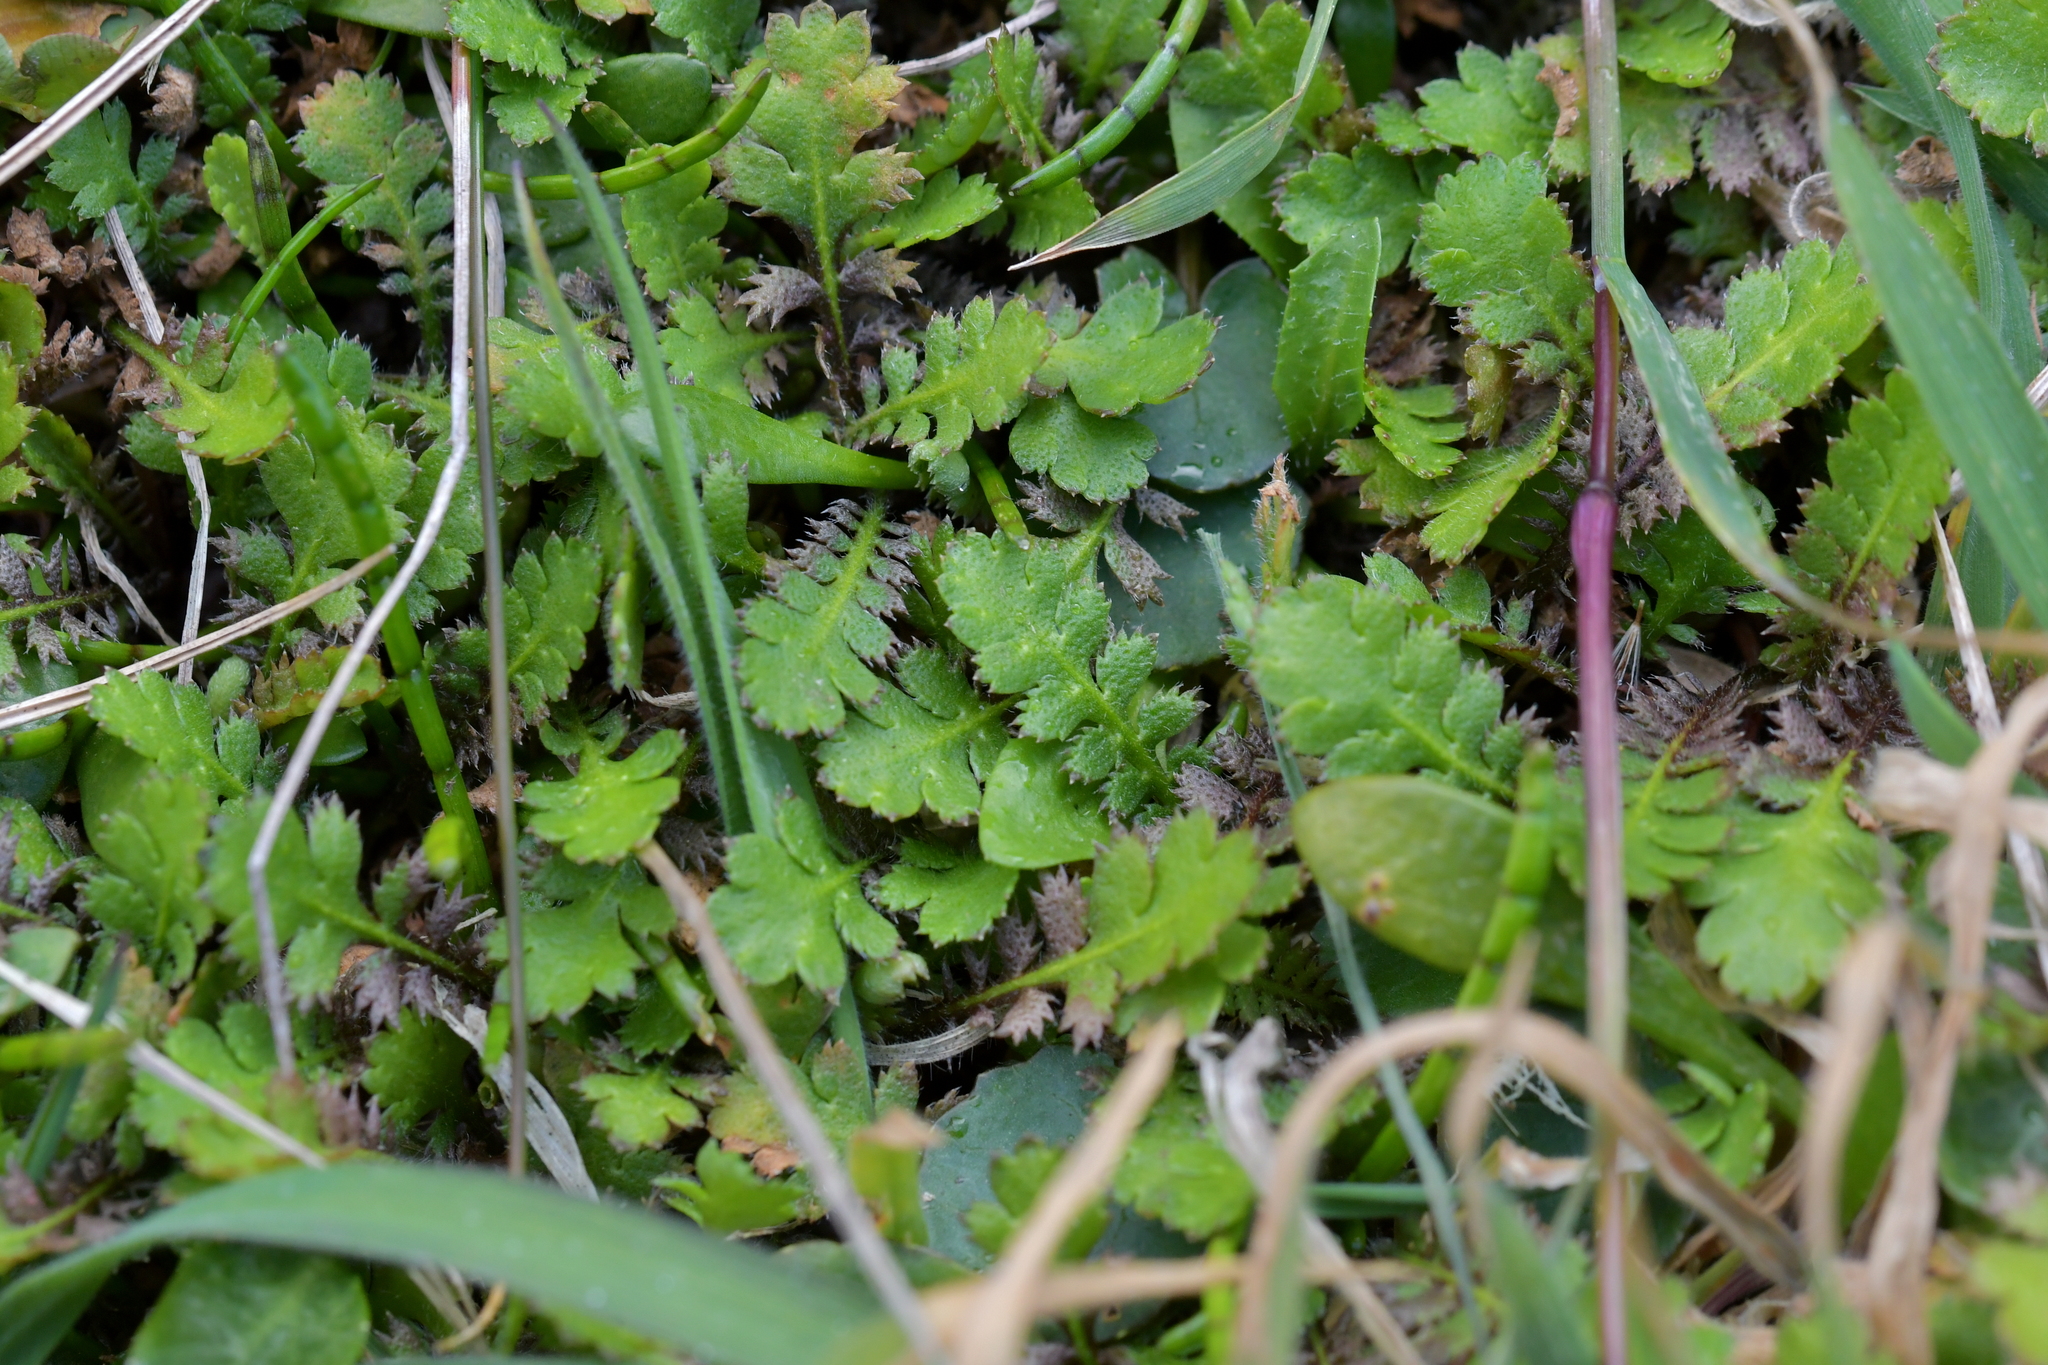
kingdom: Plantae
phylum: Tracheophyta
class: Magnoliopsida
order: Asterales
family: Asteraceae
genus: Leptinella
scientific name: Leptinella squalida
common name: New zealand brass-buttons
